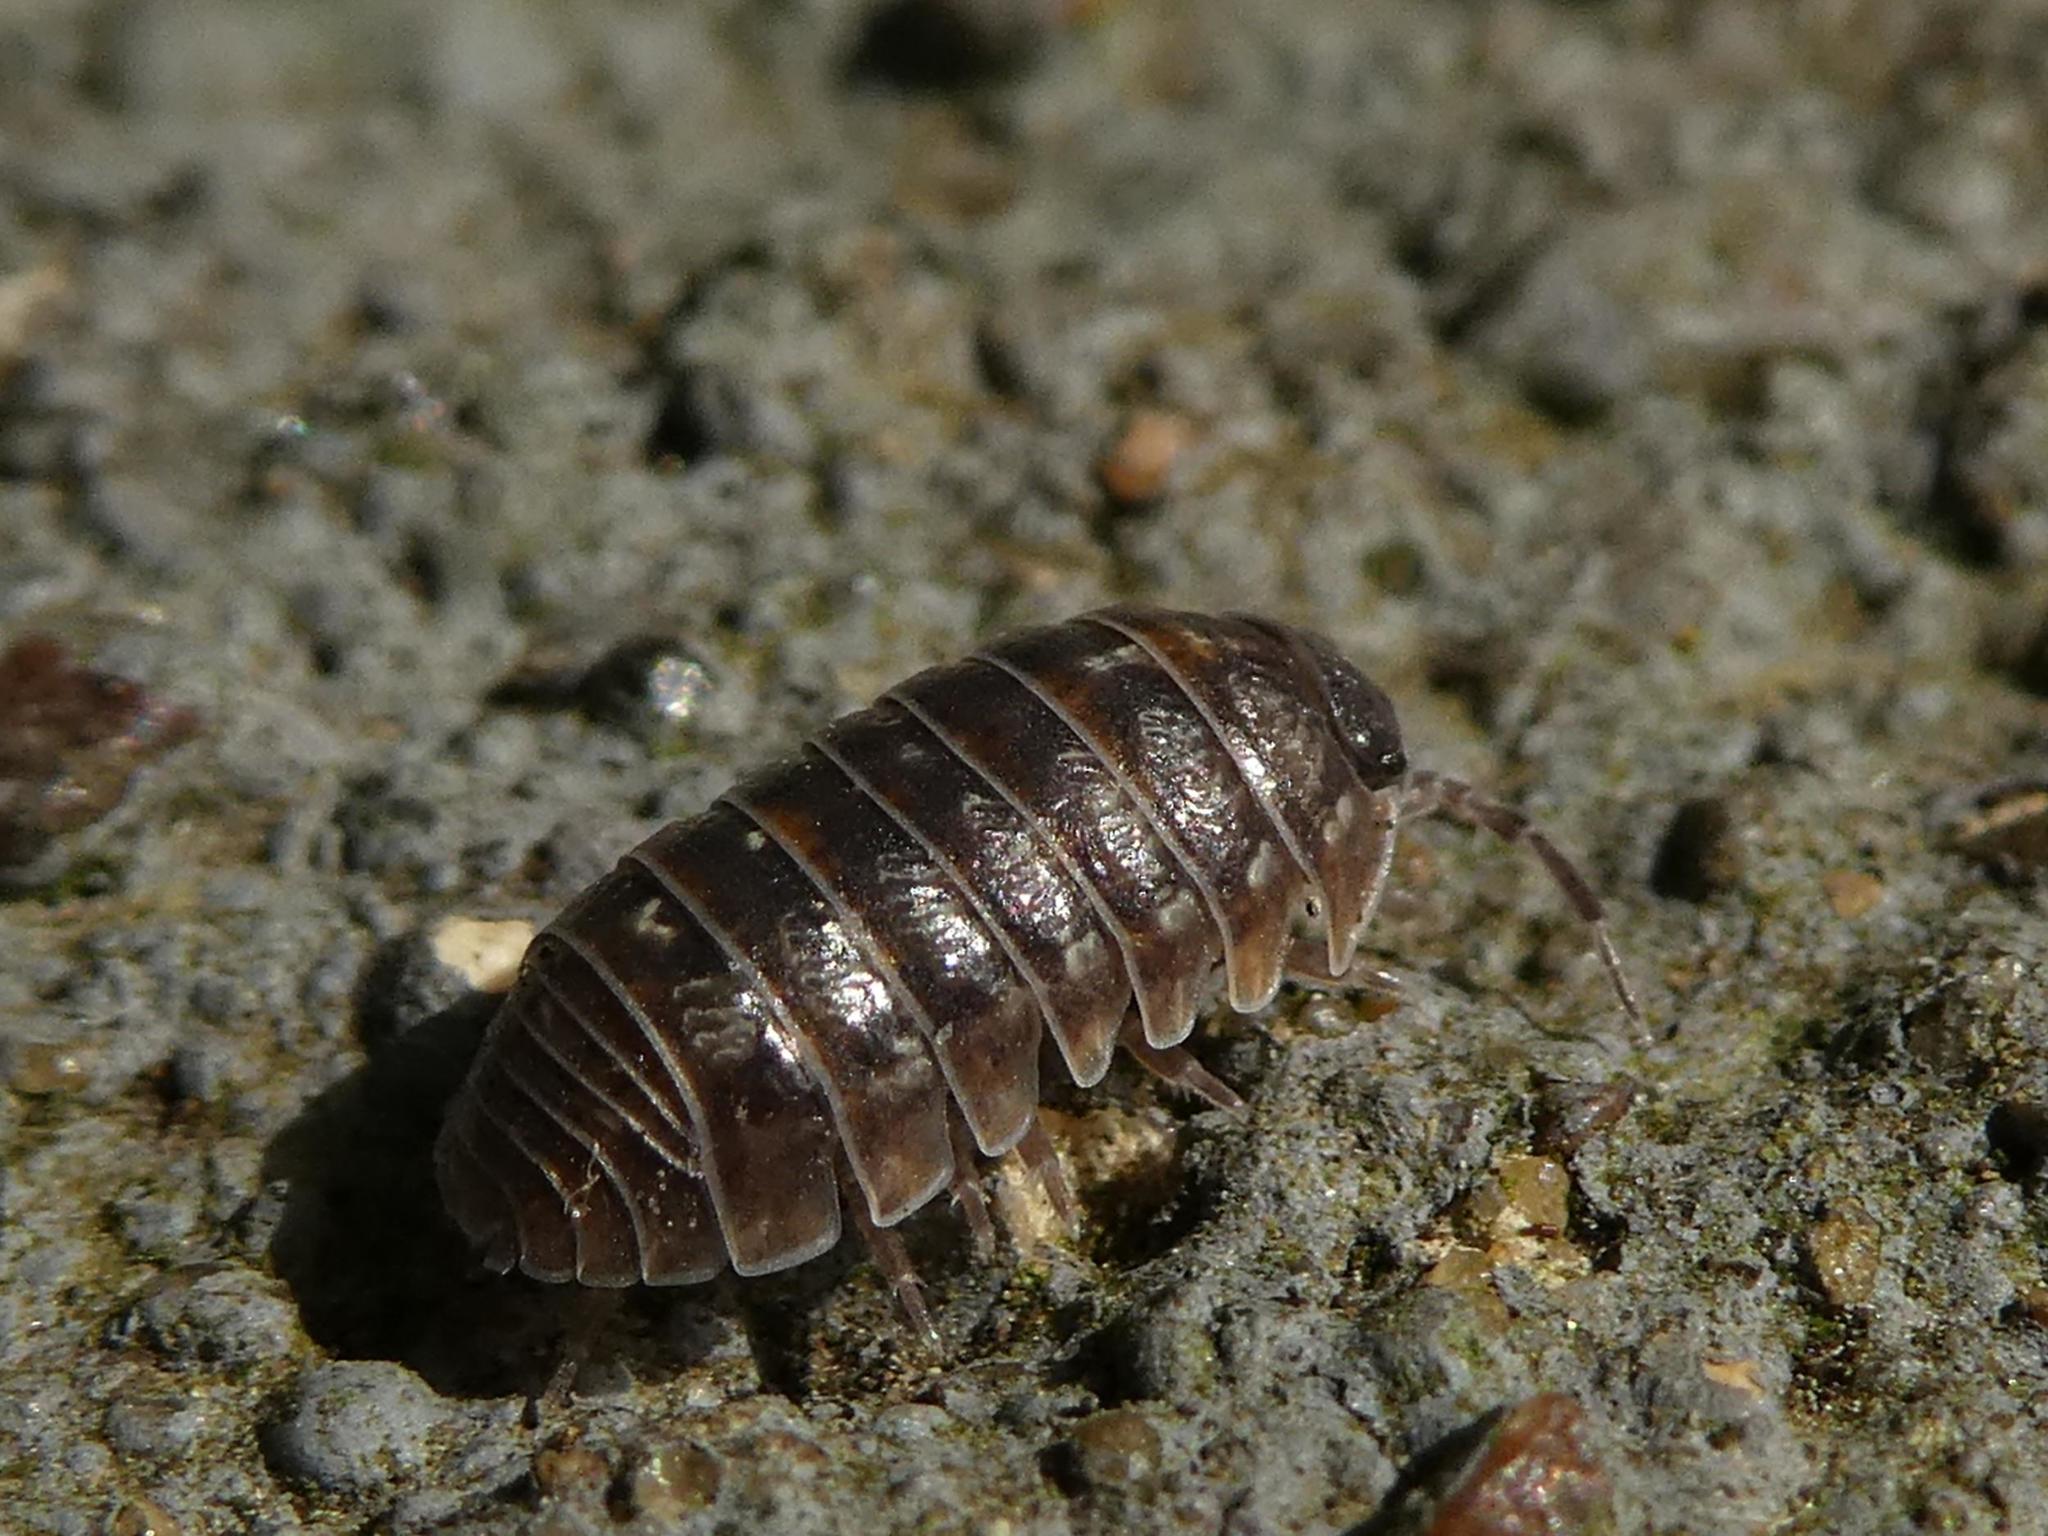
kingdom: Animalia
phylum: Arthropoda
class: Malacostraca
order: Isopoda
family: Armadillidiidae
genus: Armadillidium
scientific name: Armadillidium vulgare
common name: Common pill woodlouse
